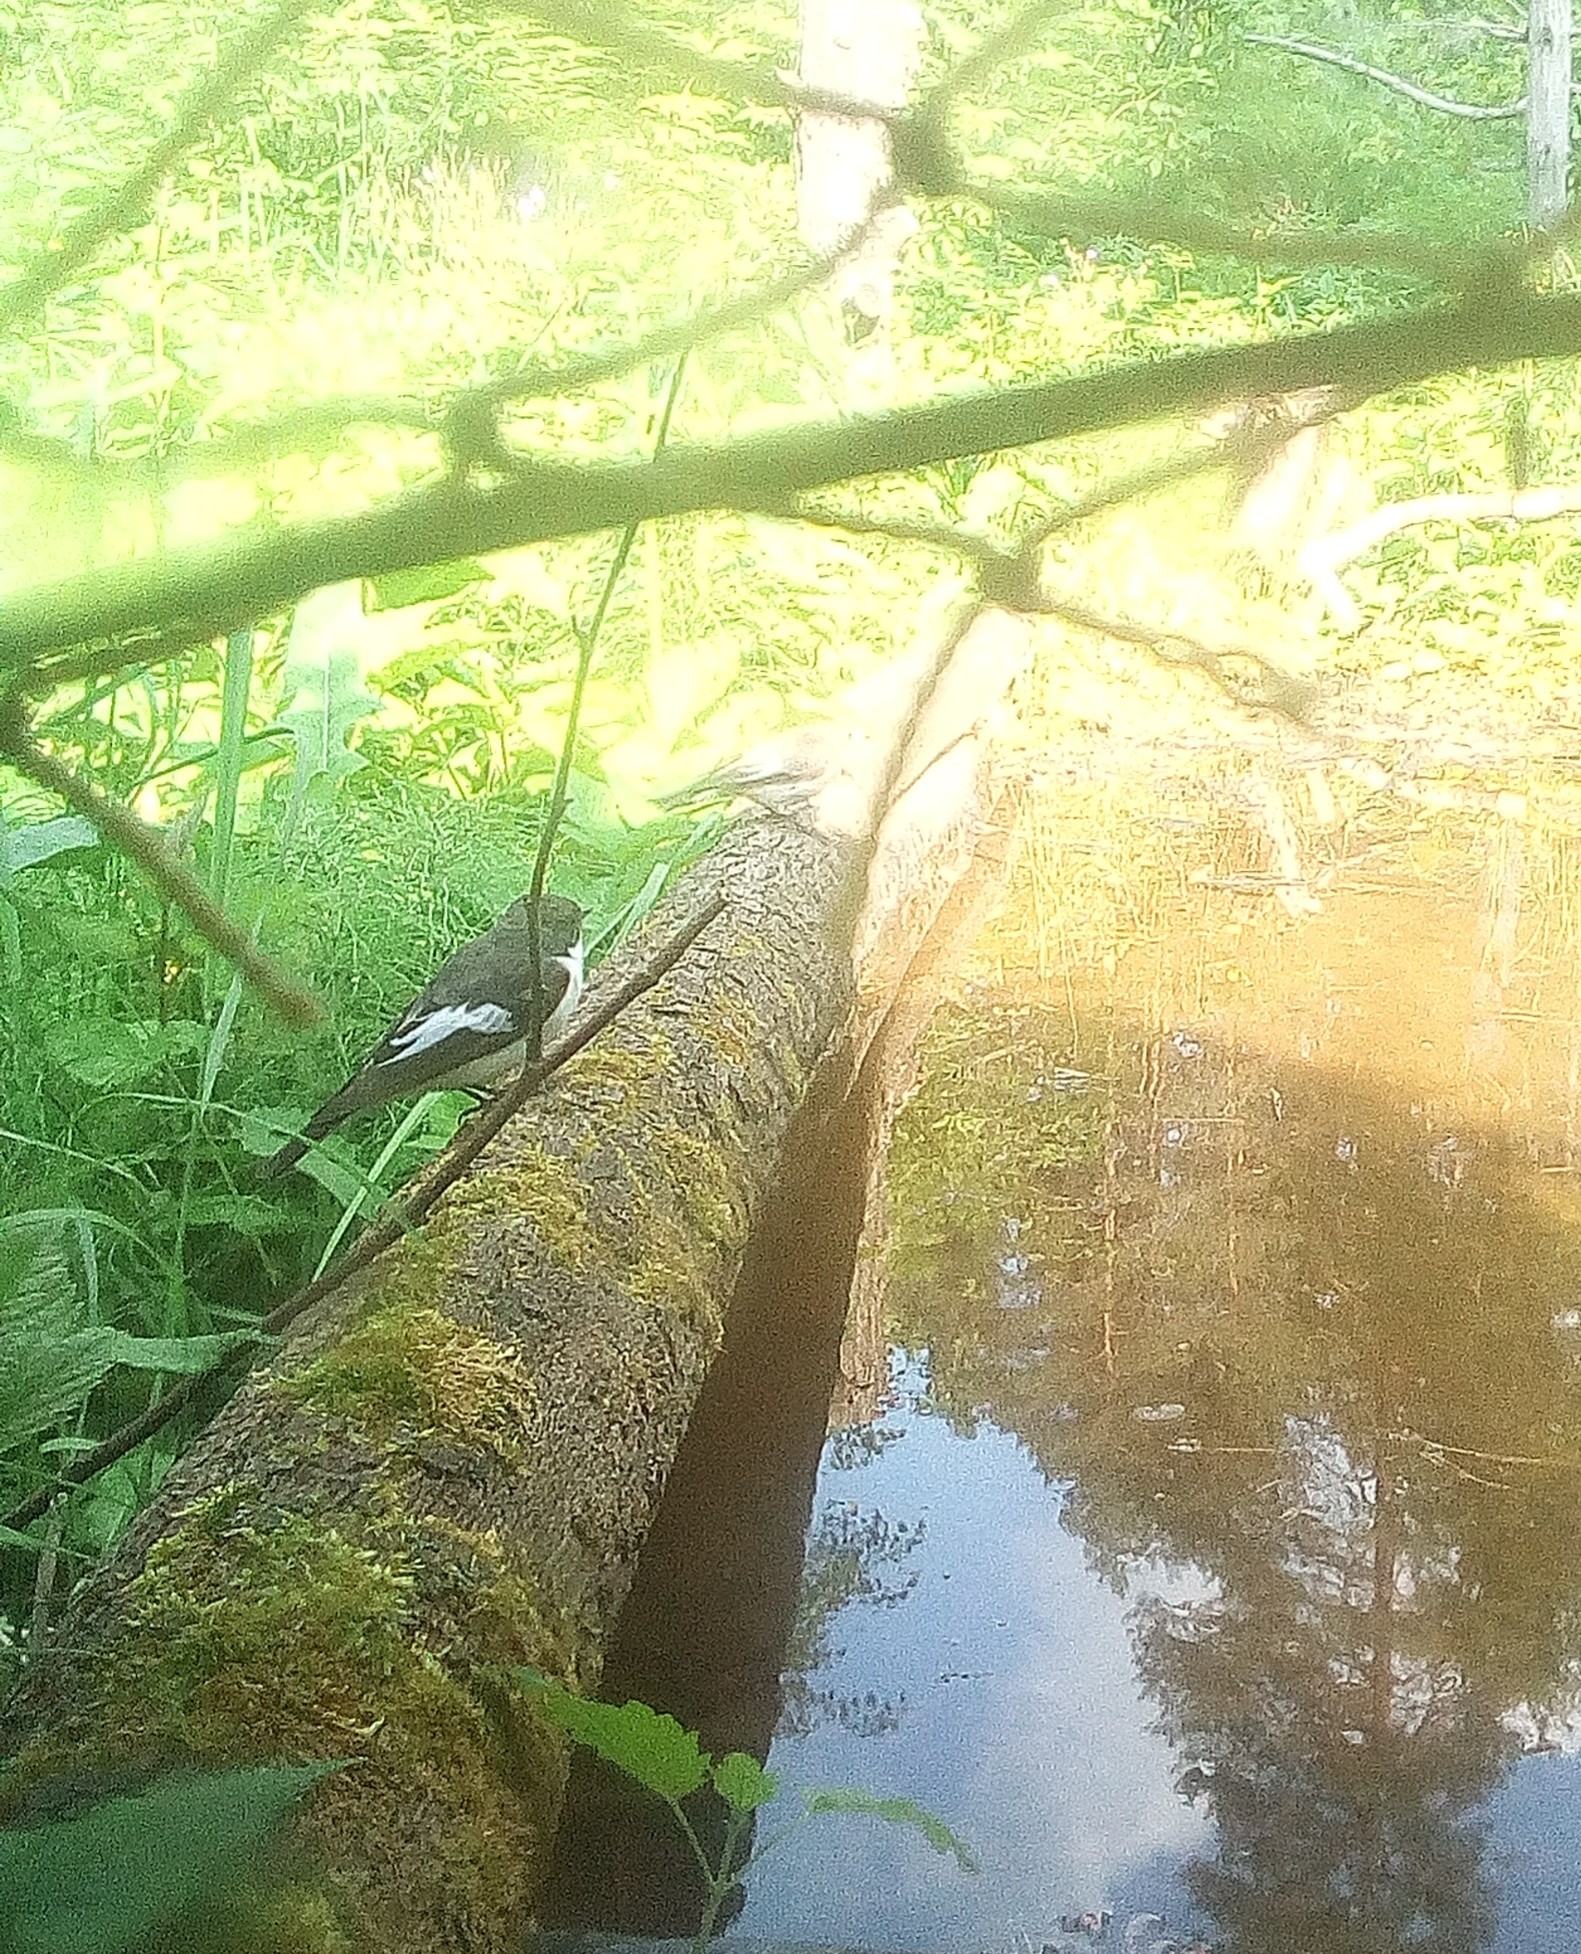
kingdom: Animalia
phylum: Chordata
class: Aves
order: Passeriformes
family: Muscicapidae
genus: Ficedula
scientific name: Ficedula hypoleuca
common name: European pied flycatcher
